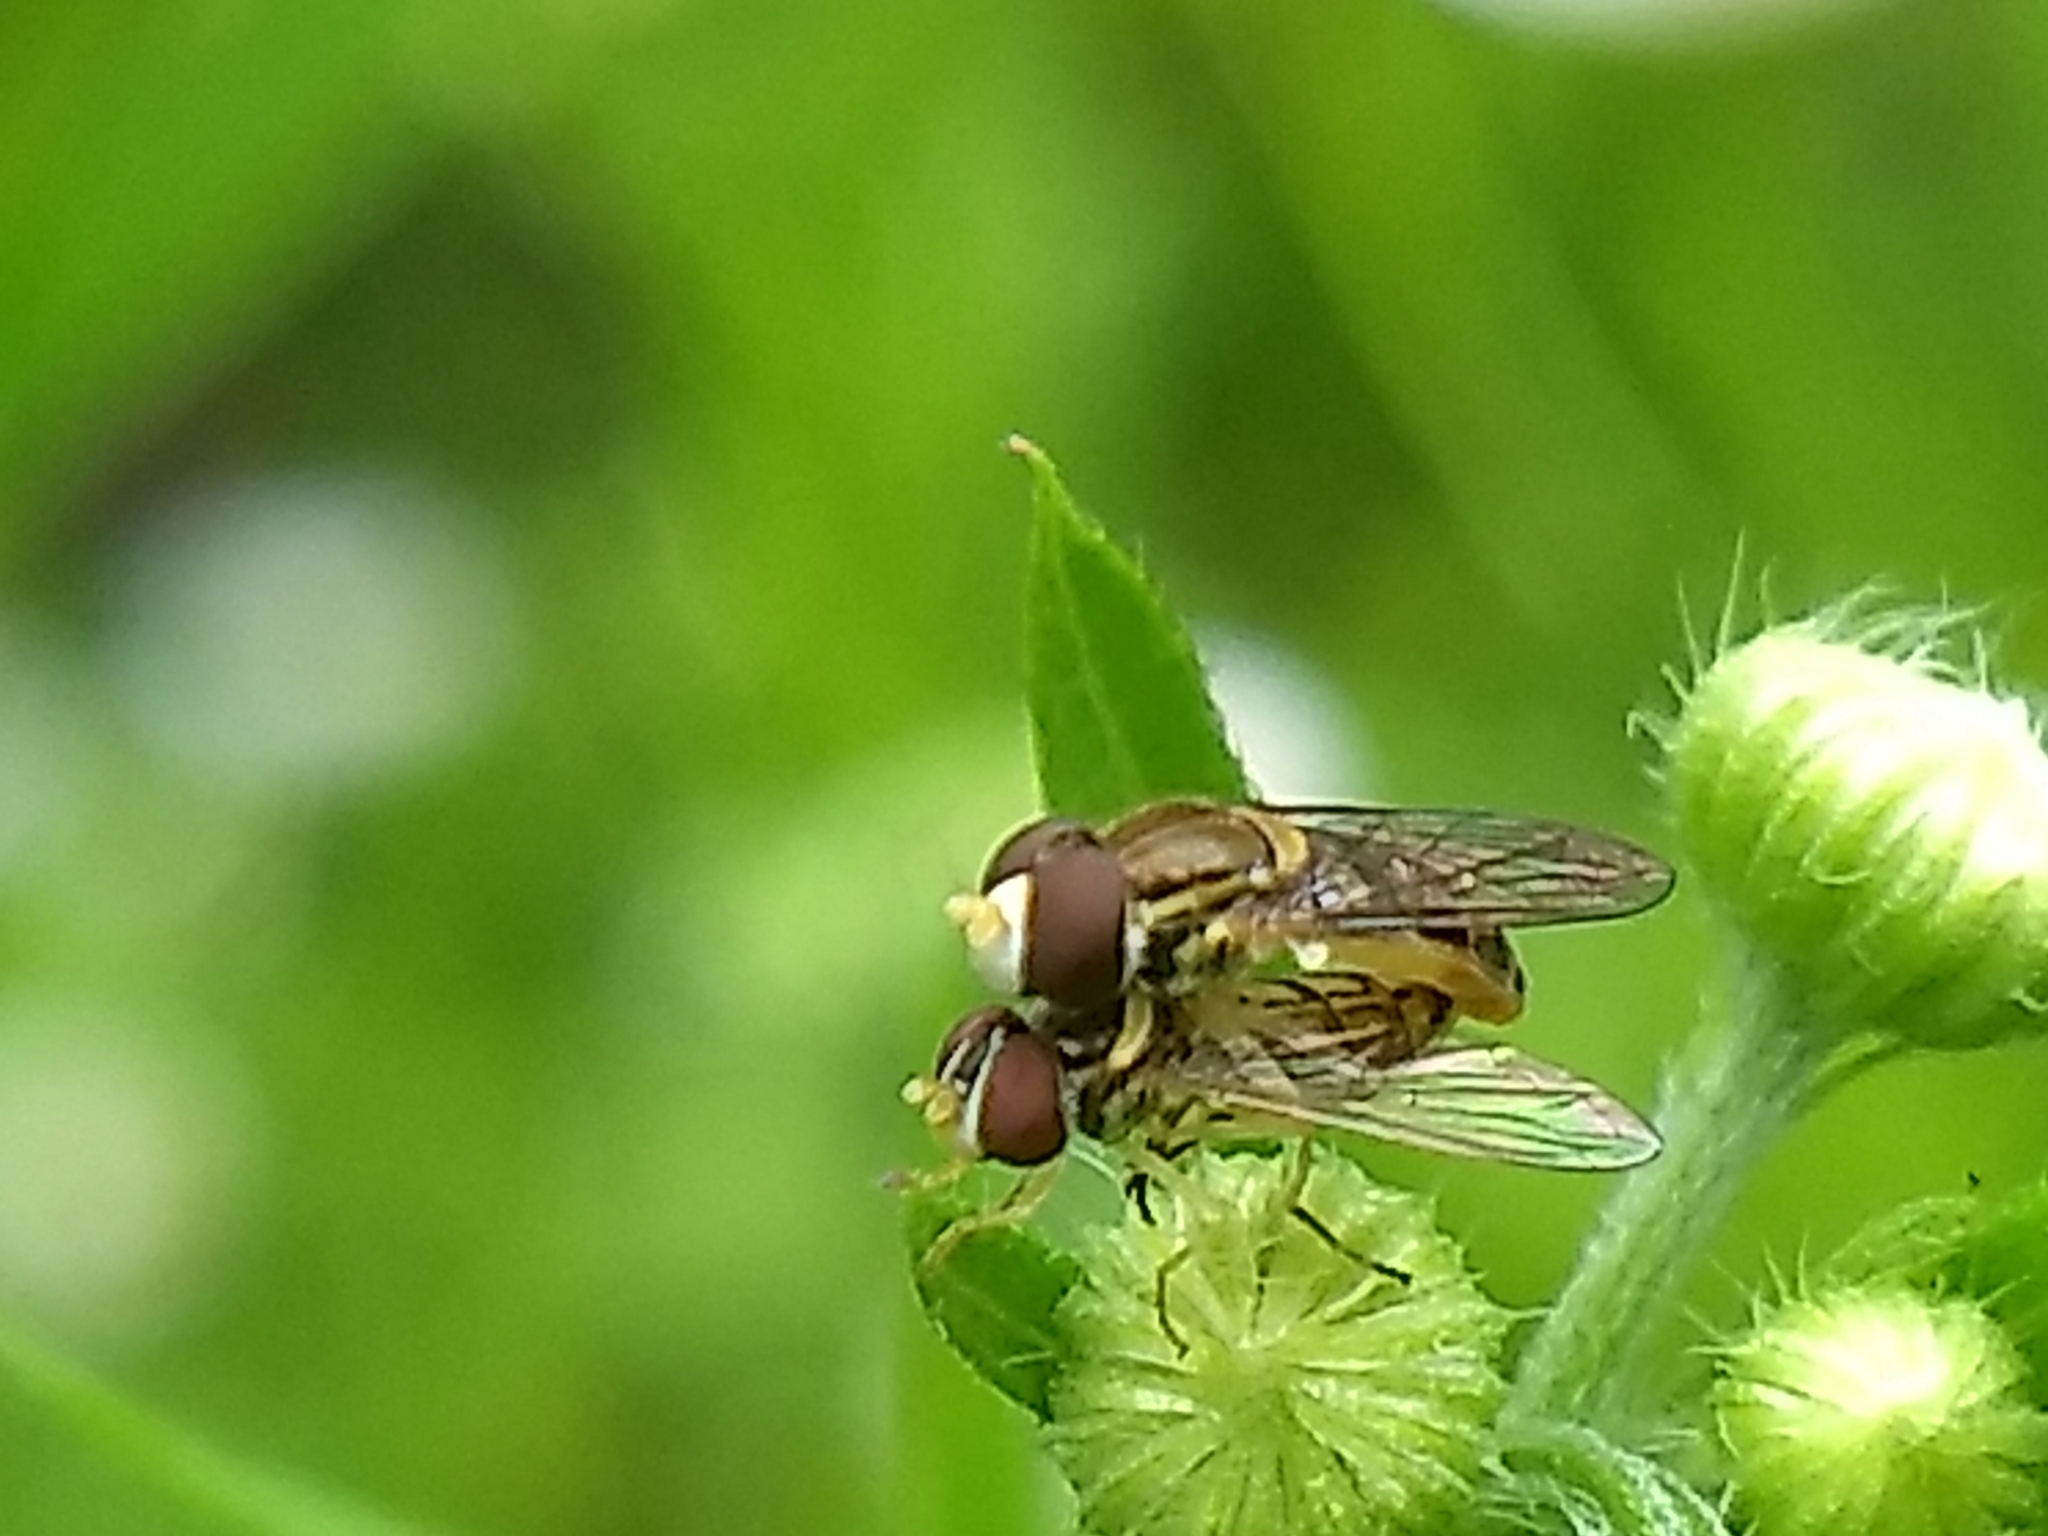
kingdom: Animalia
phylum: Arthropoda
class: Insecta
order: Diptera
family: Syrphidae
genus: Toxomerus
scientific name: Toxomerus marginatus
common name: Syrphid fly
